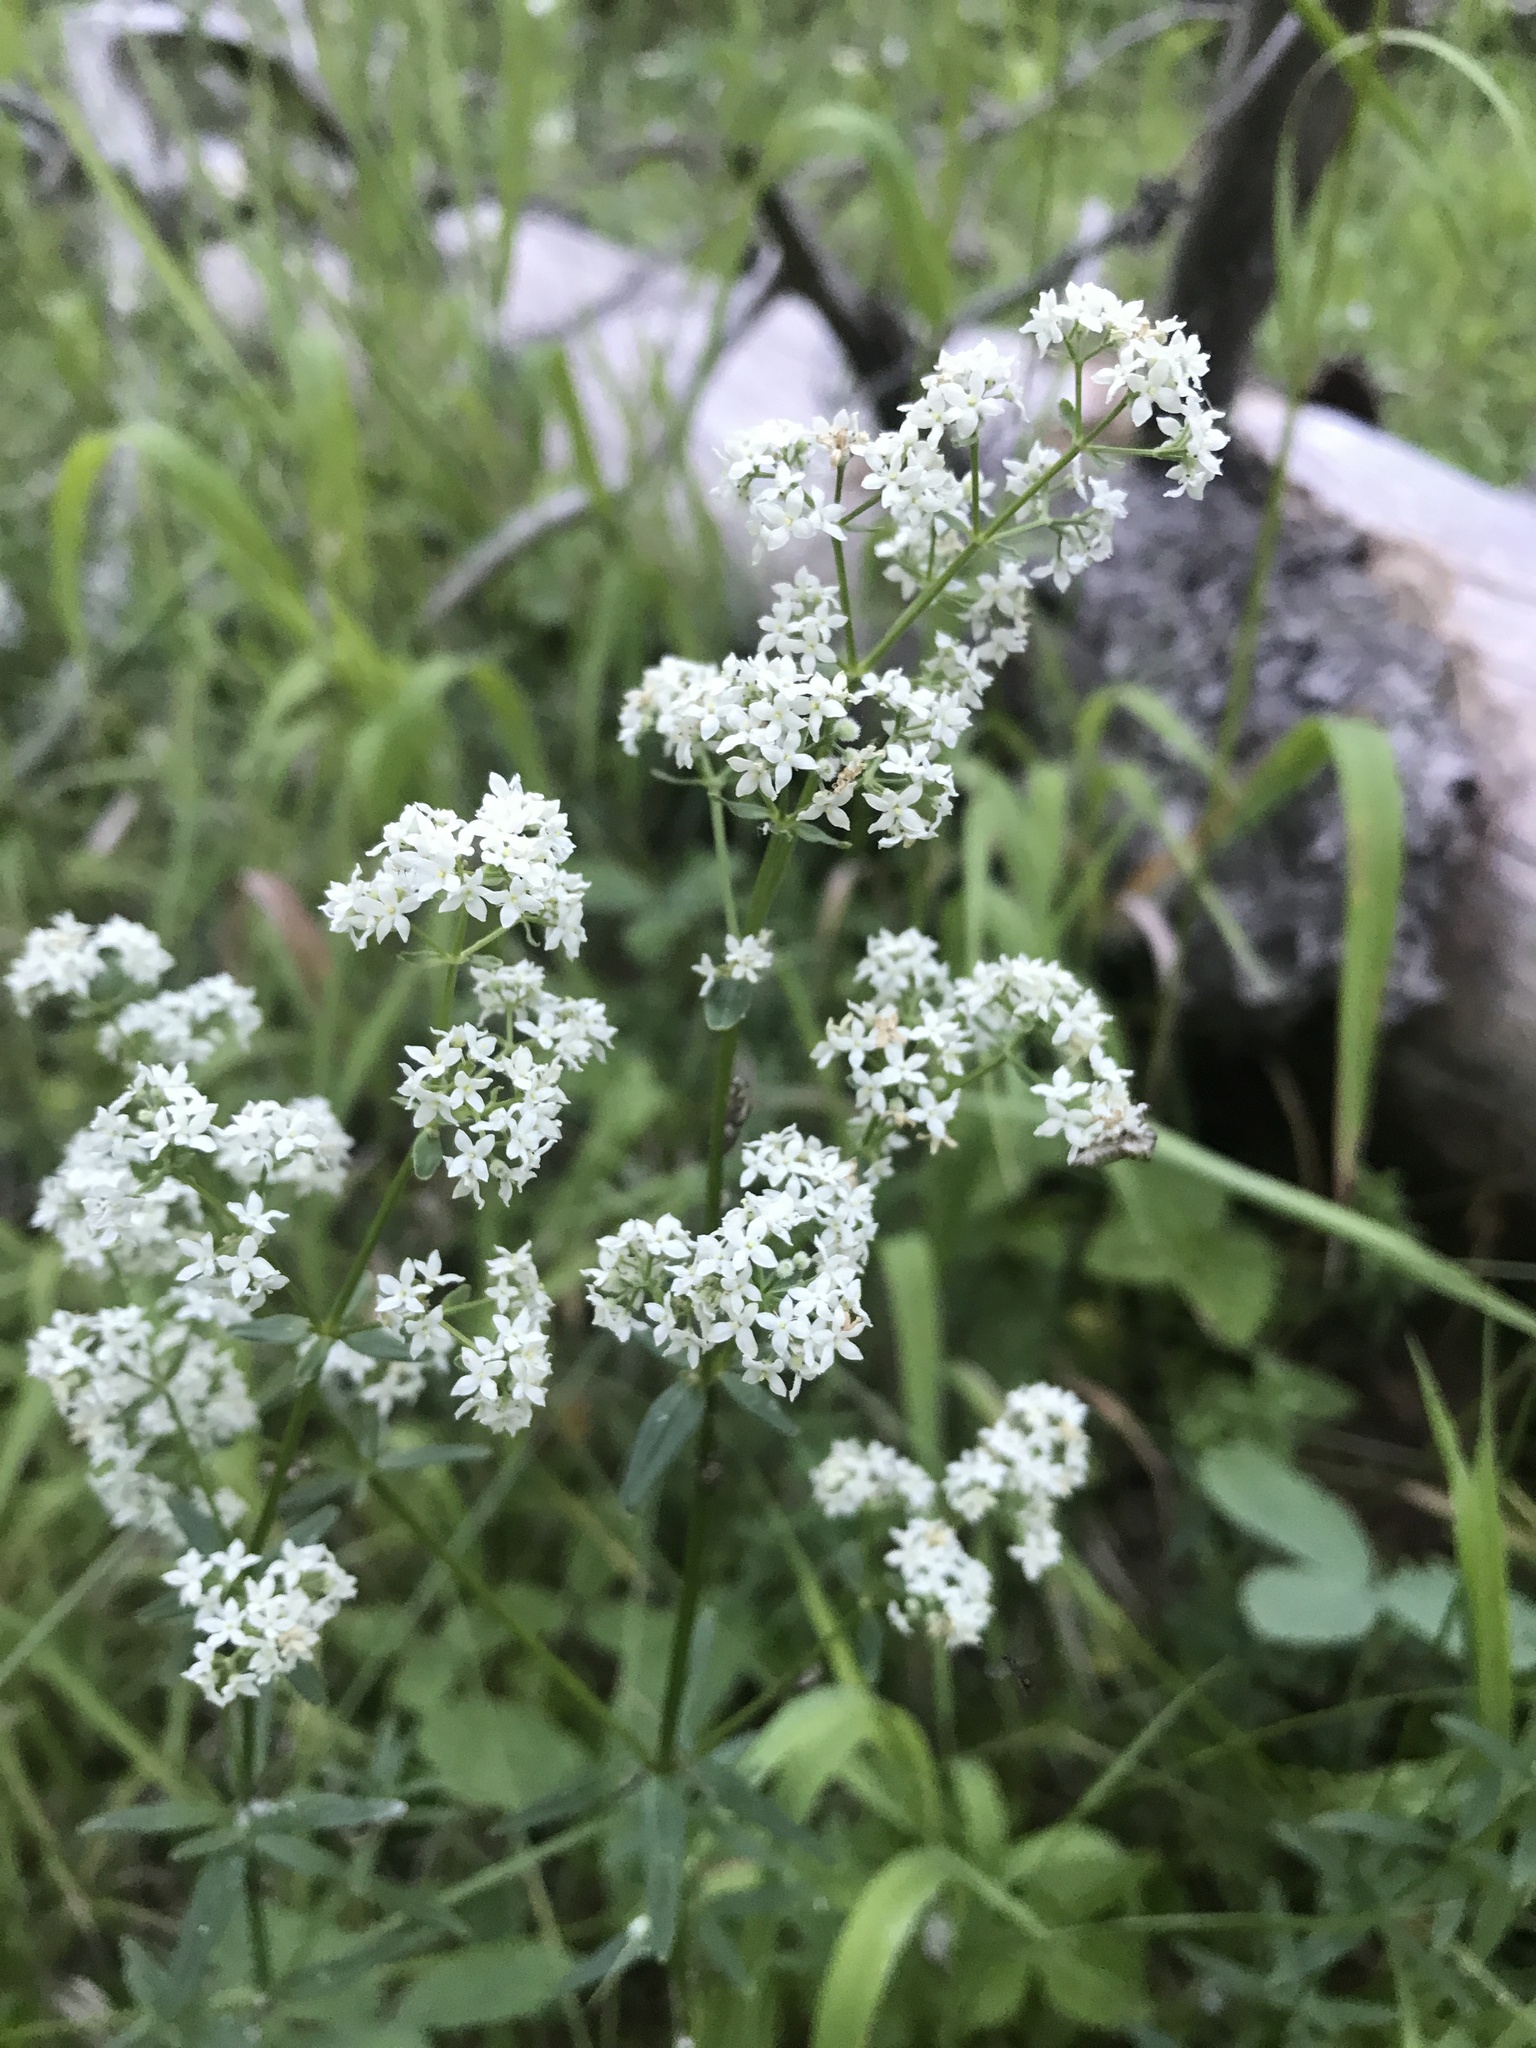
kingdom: Plantae
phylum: Tracheophyta
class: Magnoliopsida
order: Gentianales
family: Rubiaceae
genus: Galium
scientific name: Galium boreale
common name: Northern bedstraw
